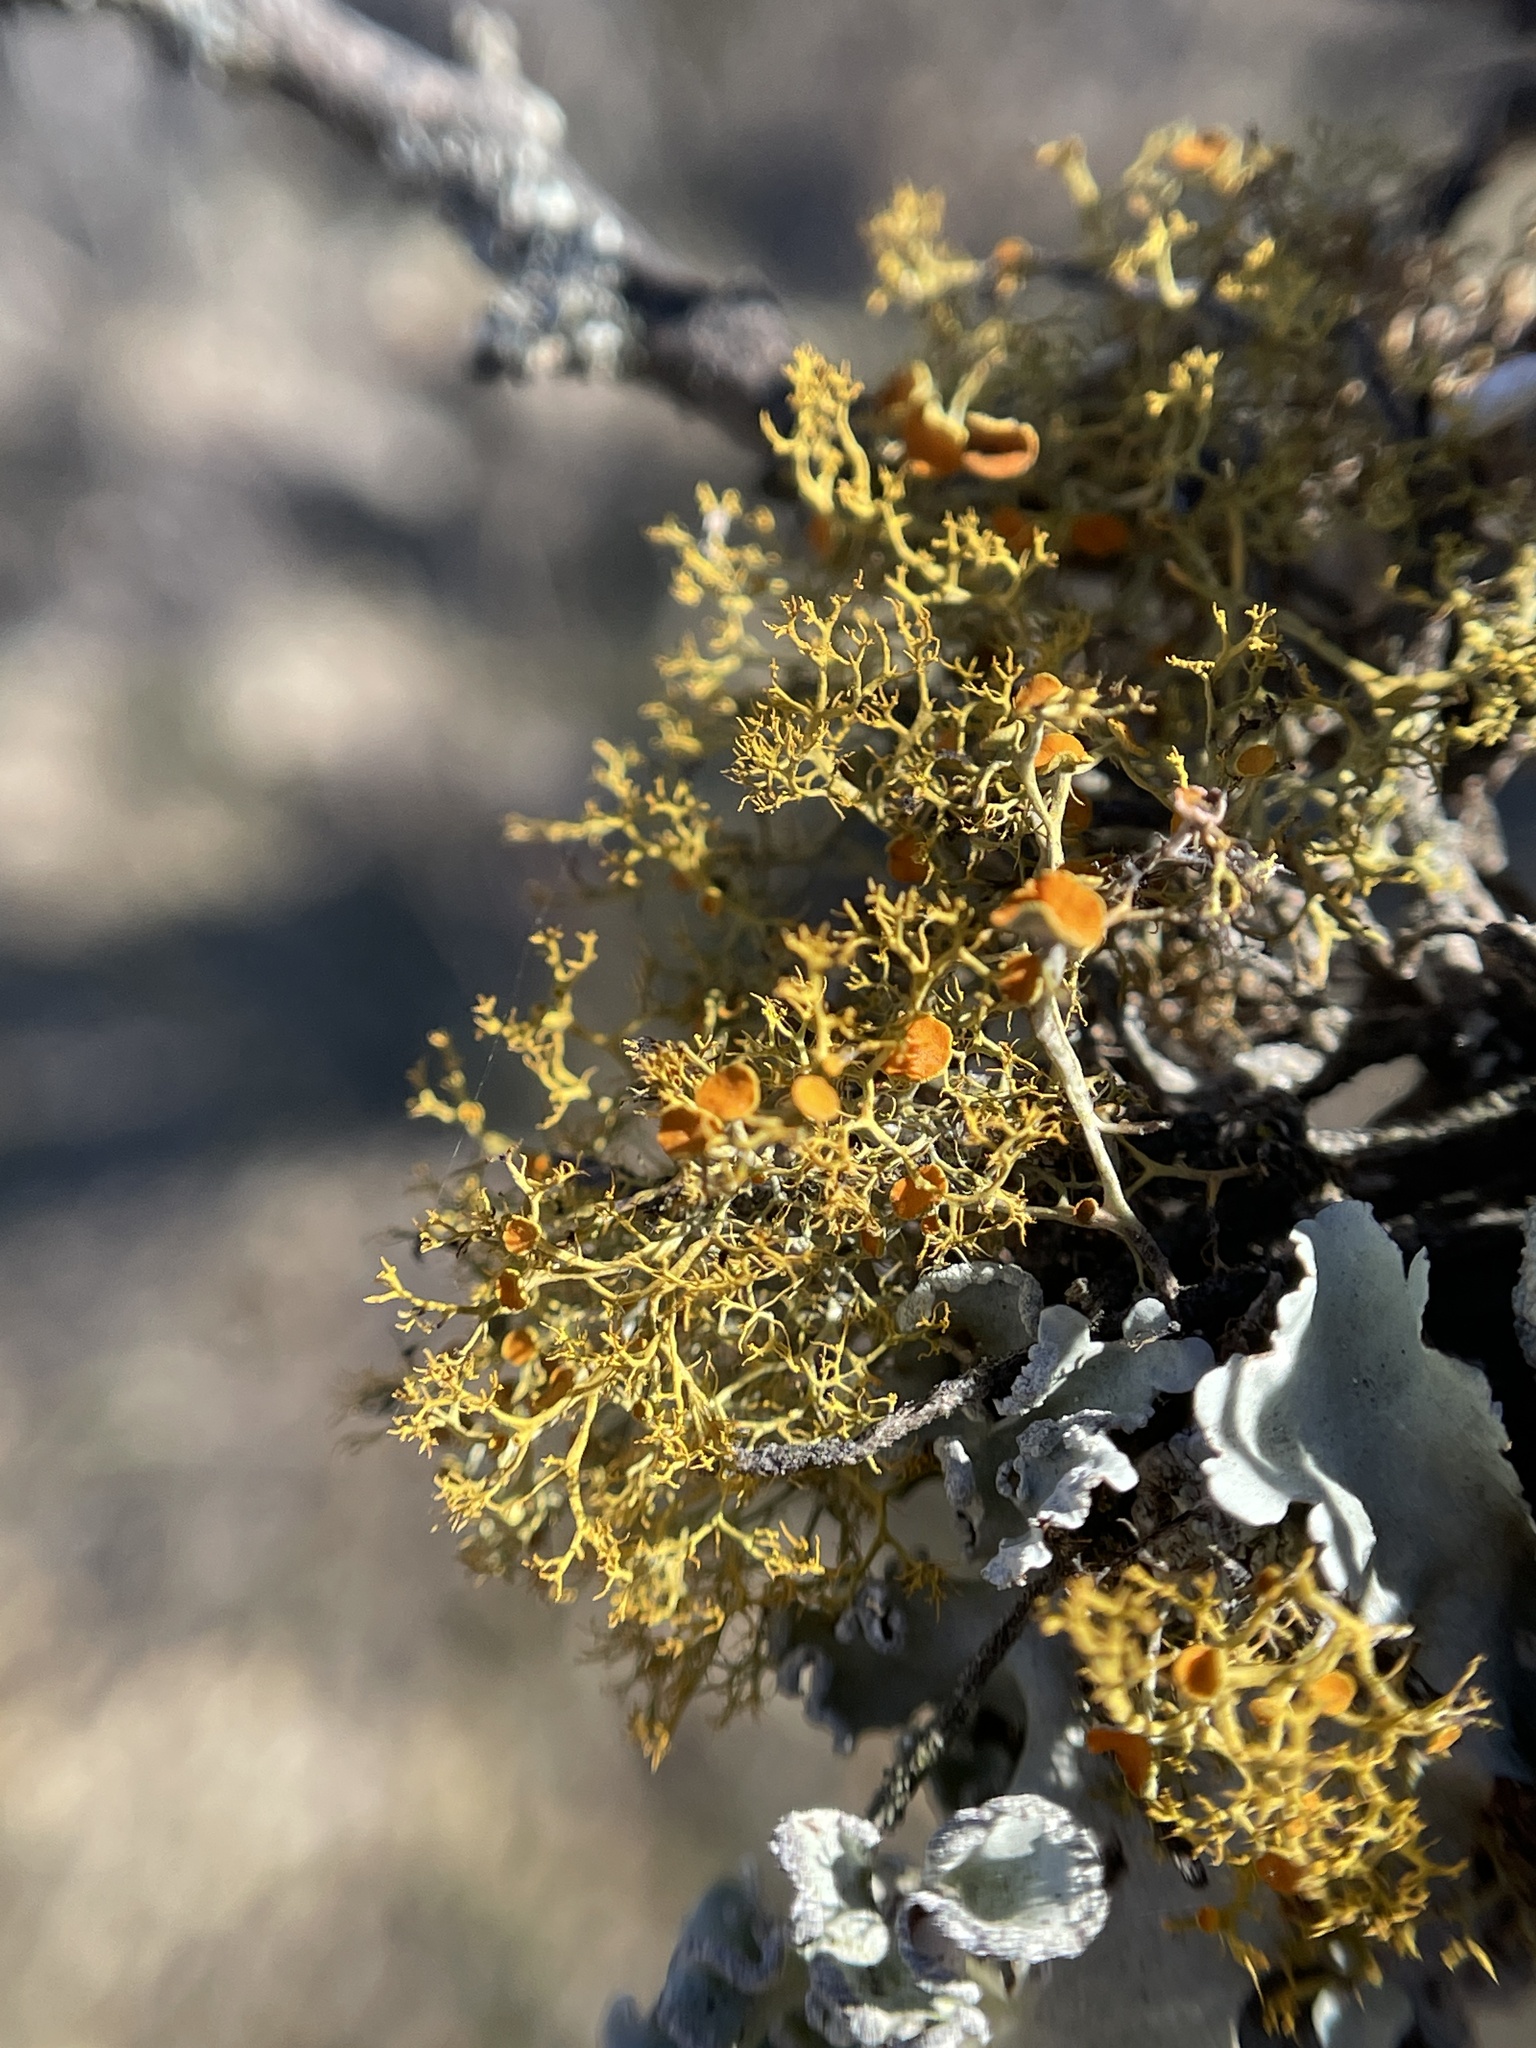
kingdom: Fungi
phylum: Ascomycota
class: Lecanoromycetes
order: Teloschistales
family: Teloschistaceae
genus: Teloschistes
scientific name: Teloschistes exilis
